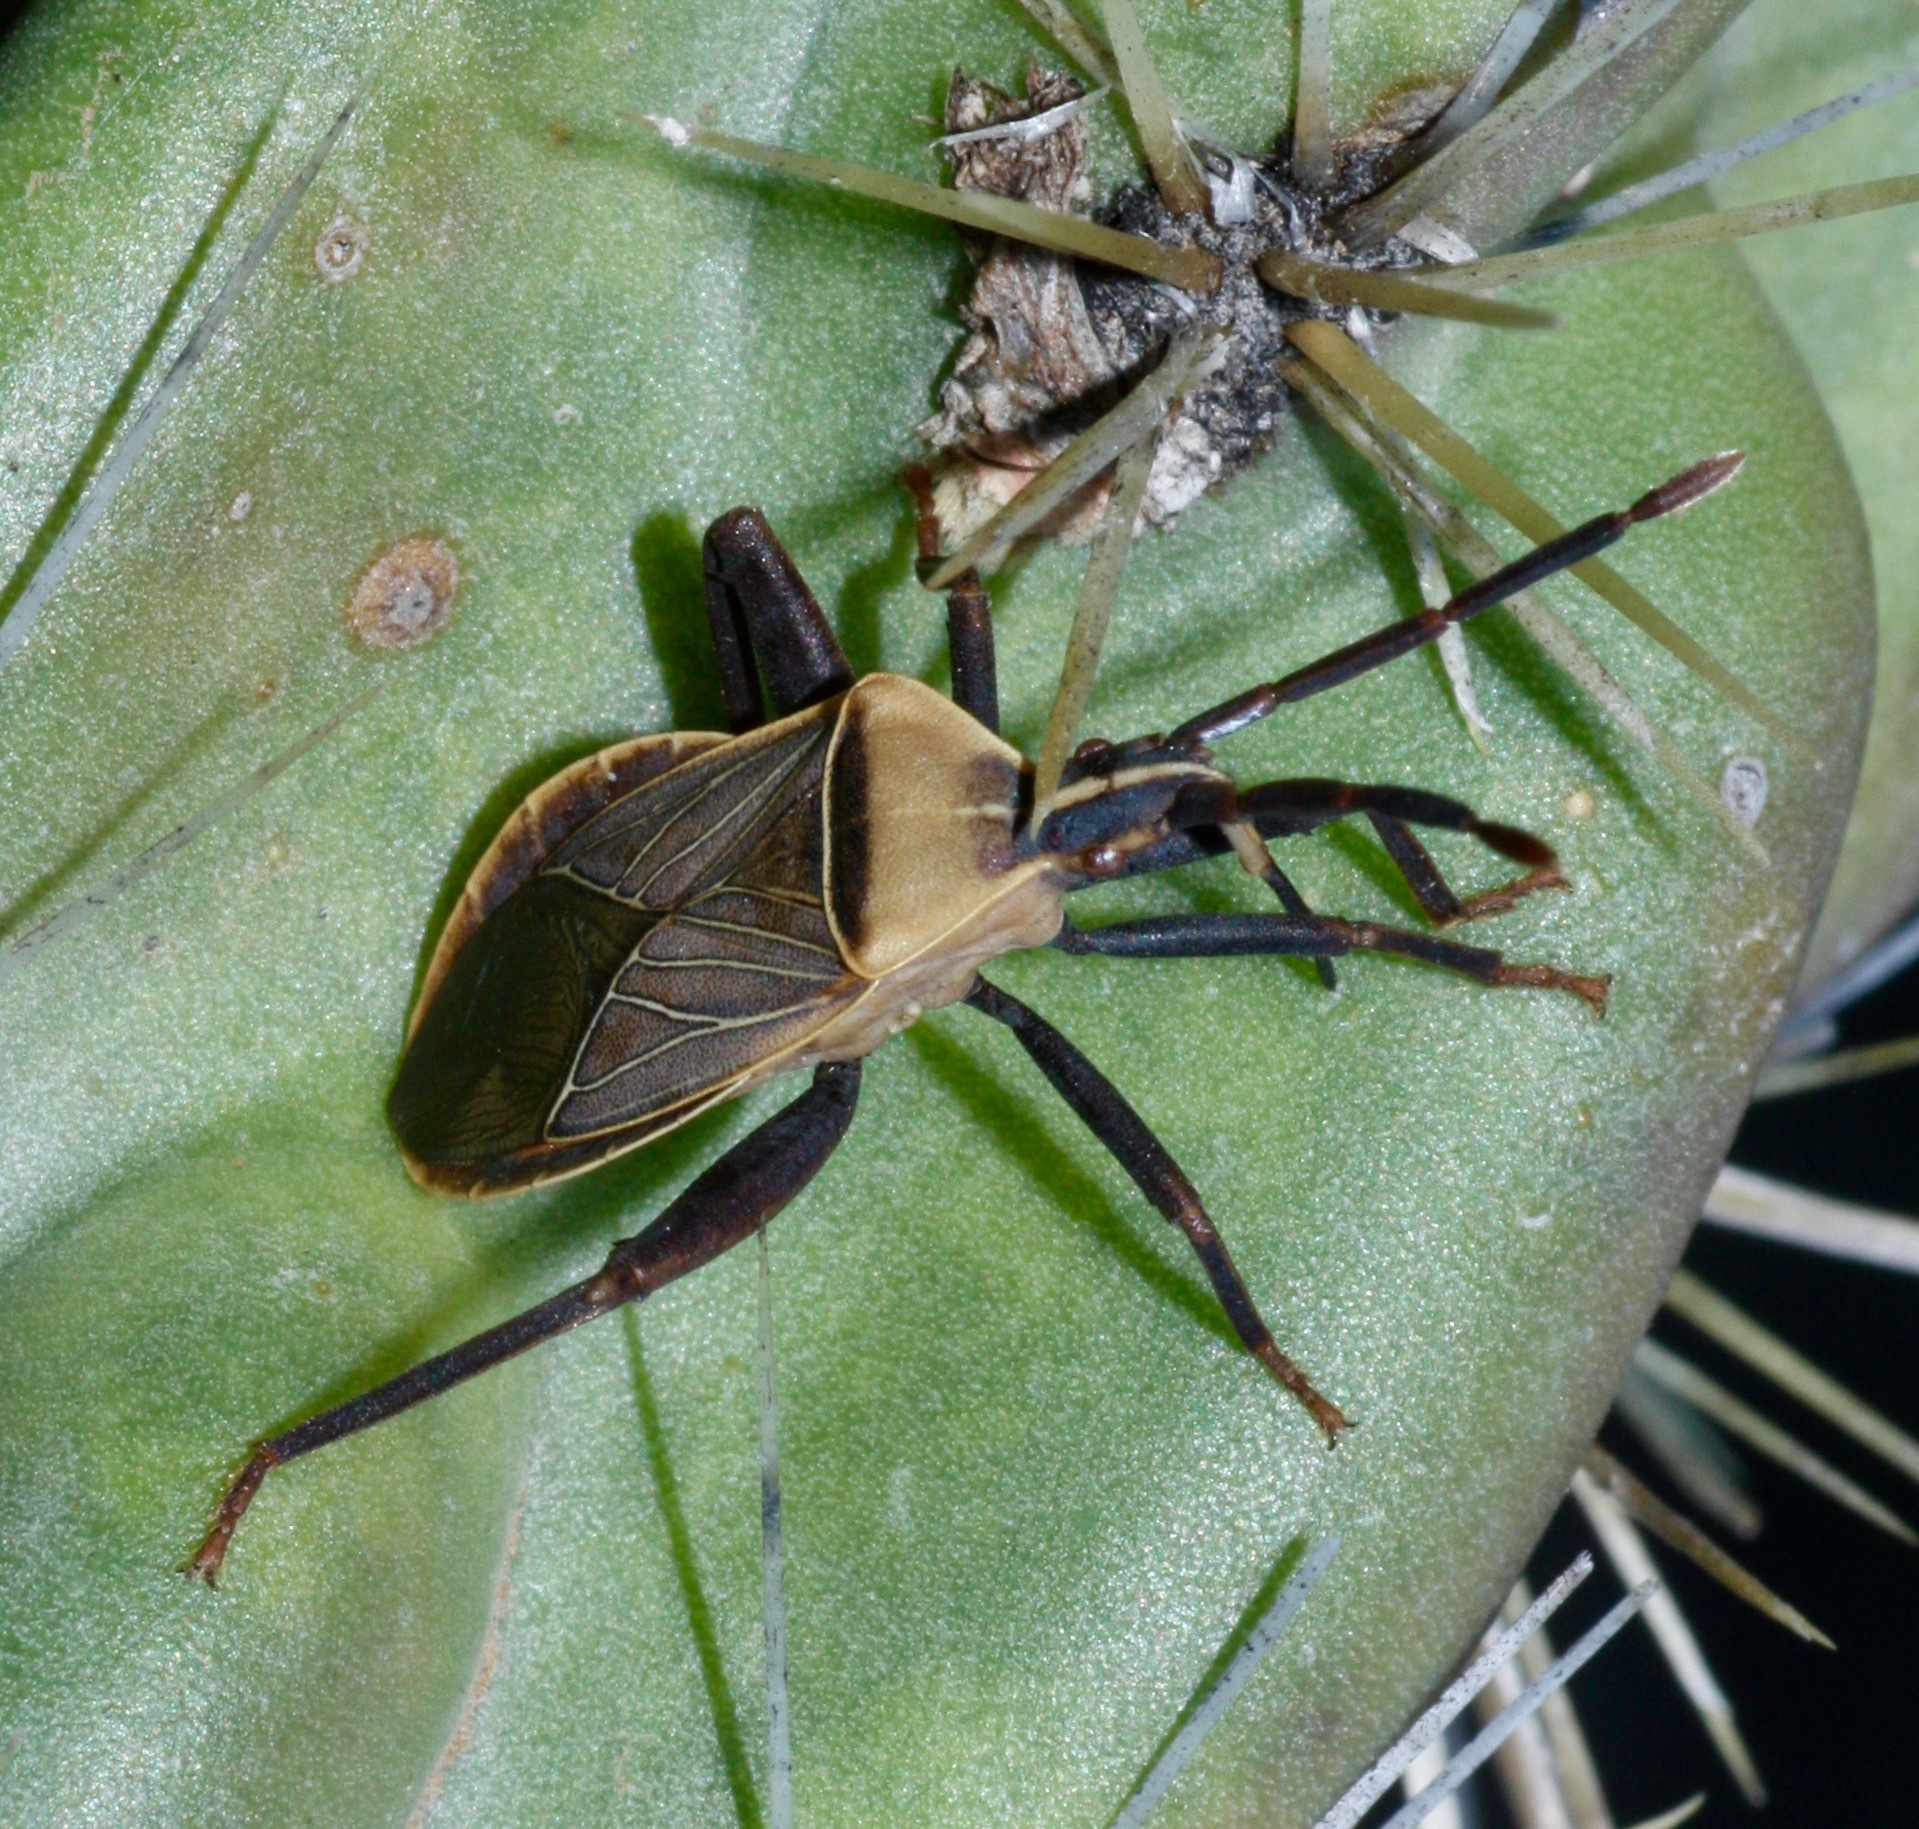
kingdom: Animalia
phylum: Arthropoda
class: Insecta
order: Hemiptera
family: Coreidae
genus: Chelinidea
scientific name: Chelinidea vittiger
